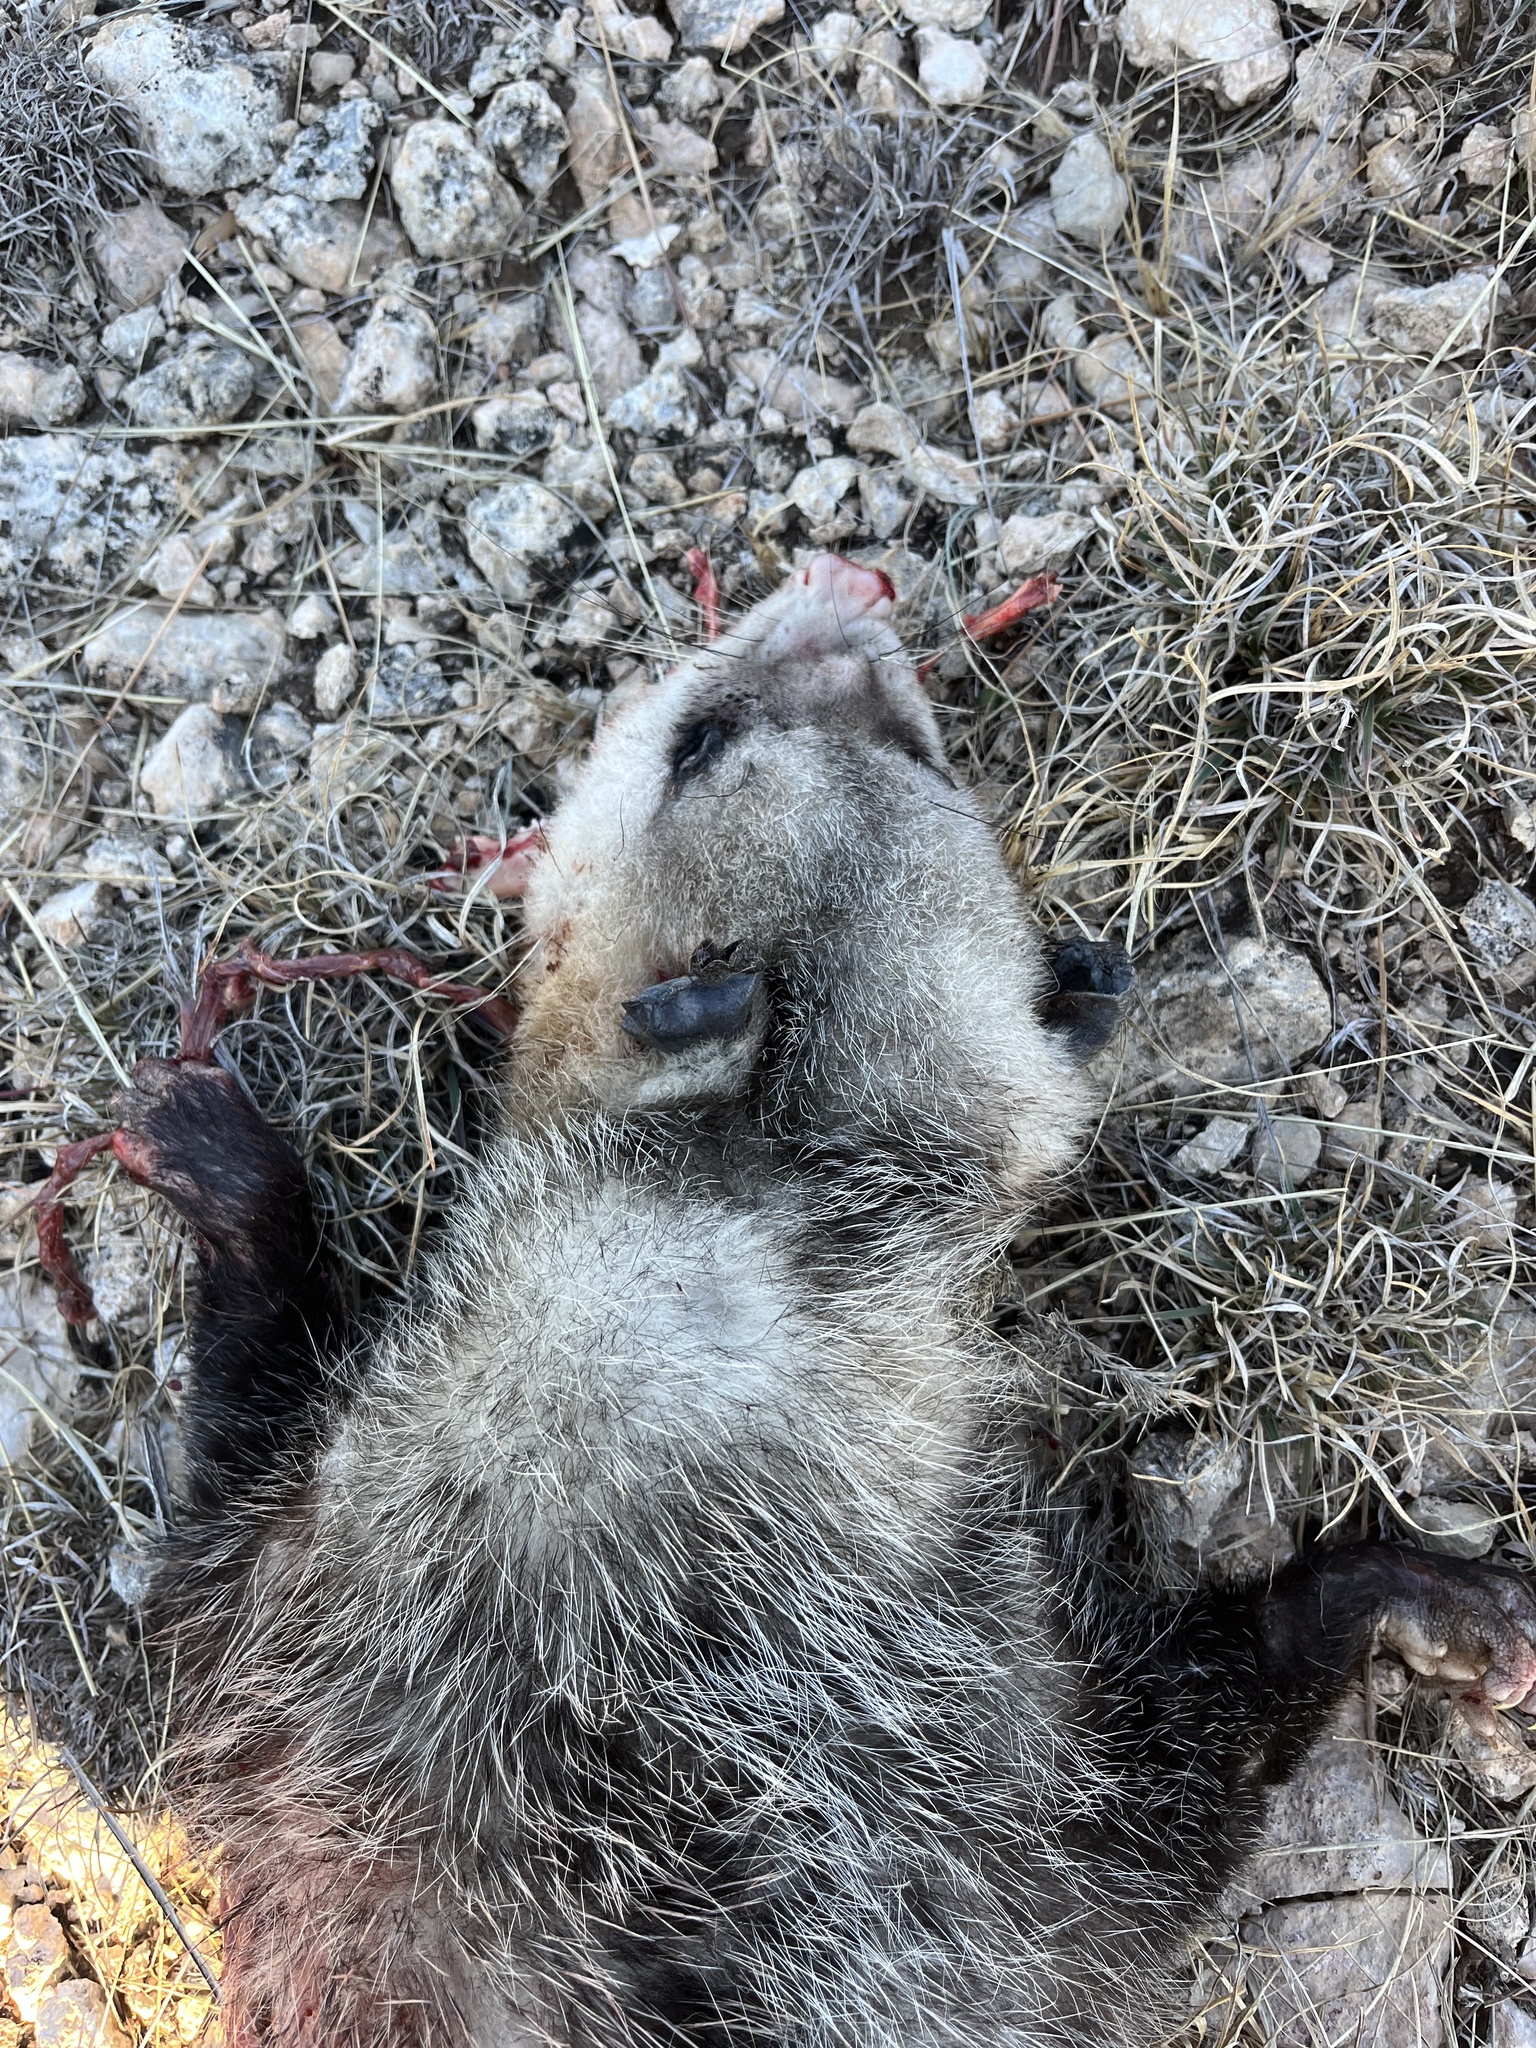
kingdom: Animalia
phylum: Chordata
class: Mammalia
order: Didelphimorphia
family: Didelphidae
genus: Didelphis
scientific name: Didelphis virginiana
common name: Virginia opossum
